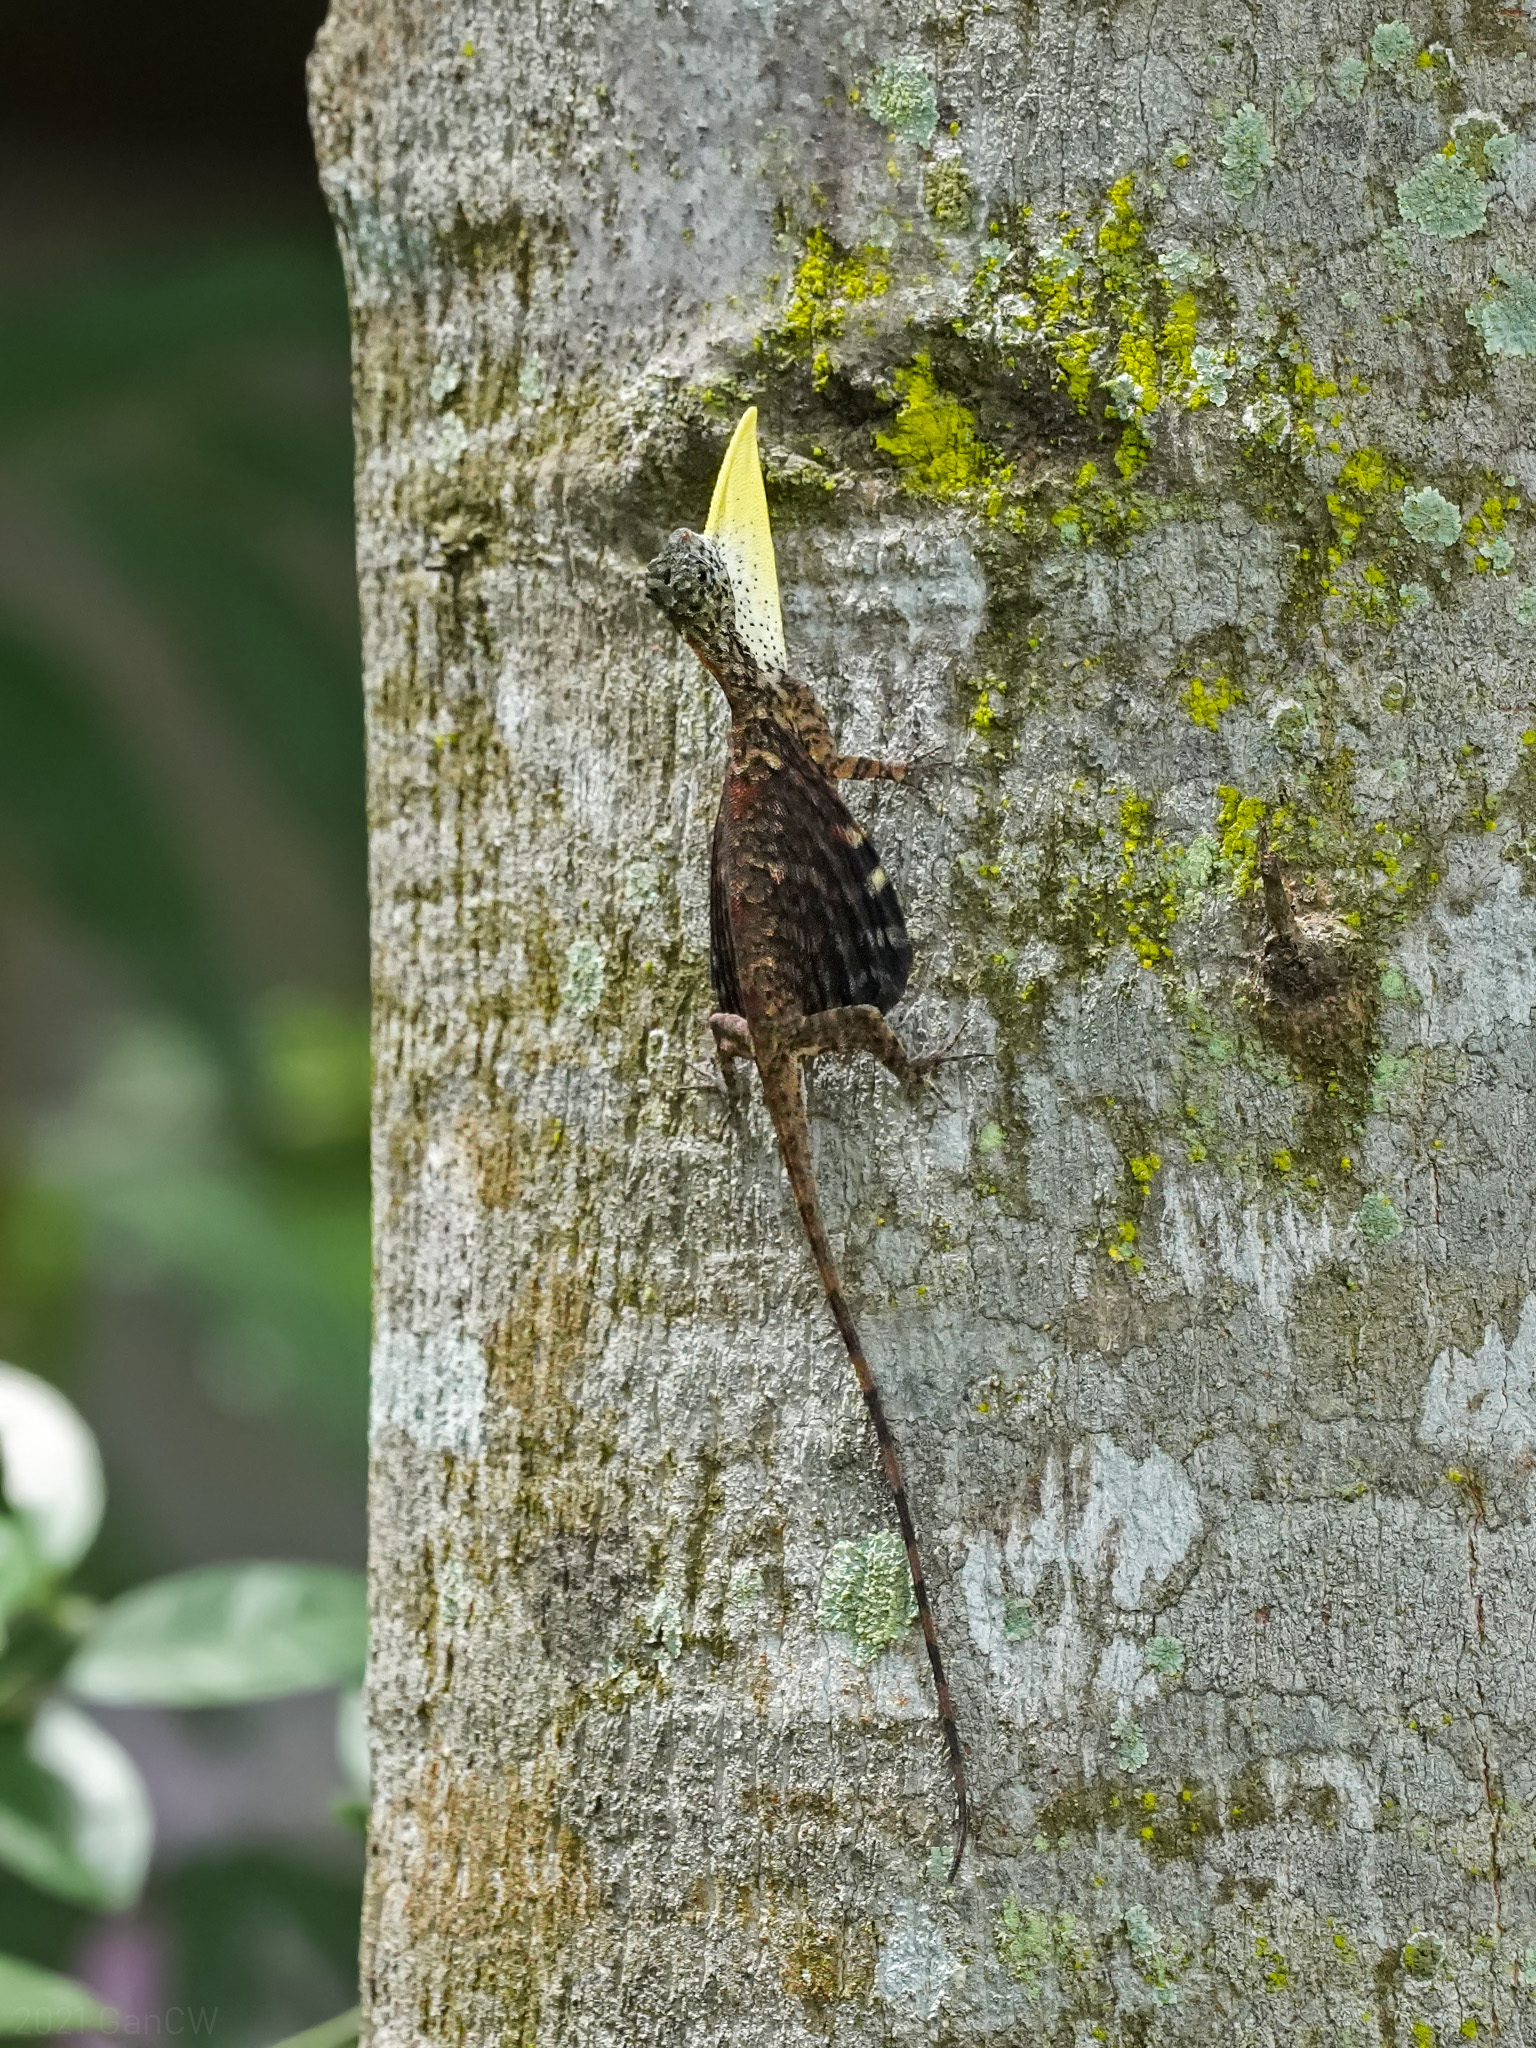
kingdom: Animalia
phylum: Chordata
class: Squamata
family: Agamidae
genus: Draco
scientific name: Draco sumatranus
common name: Common gliding lizard
